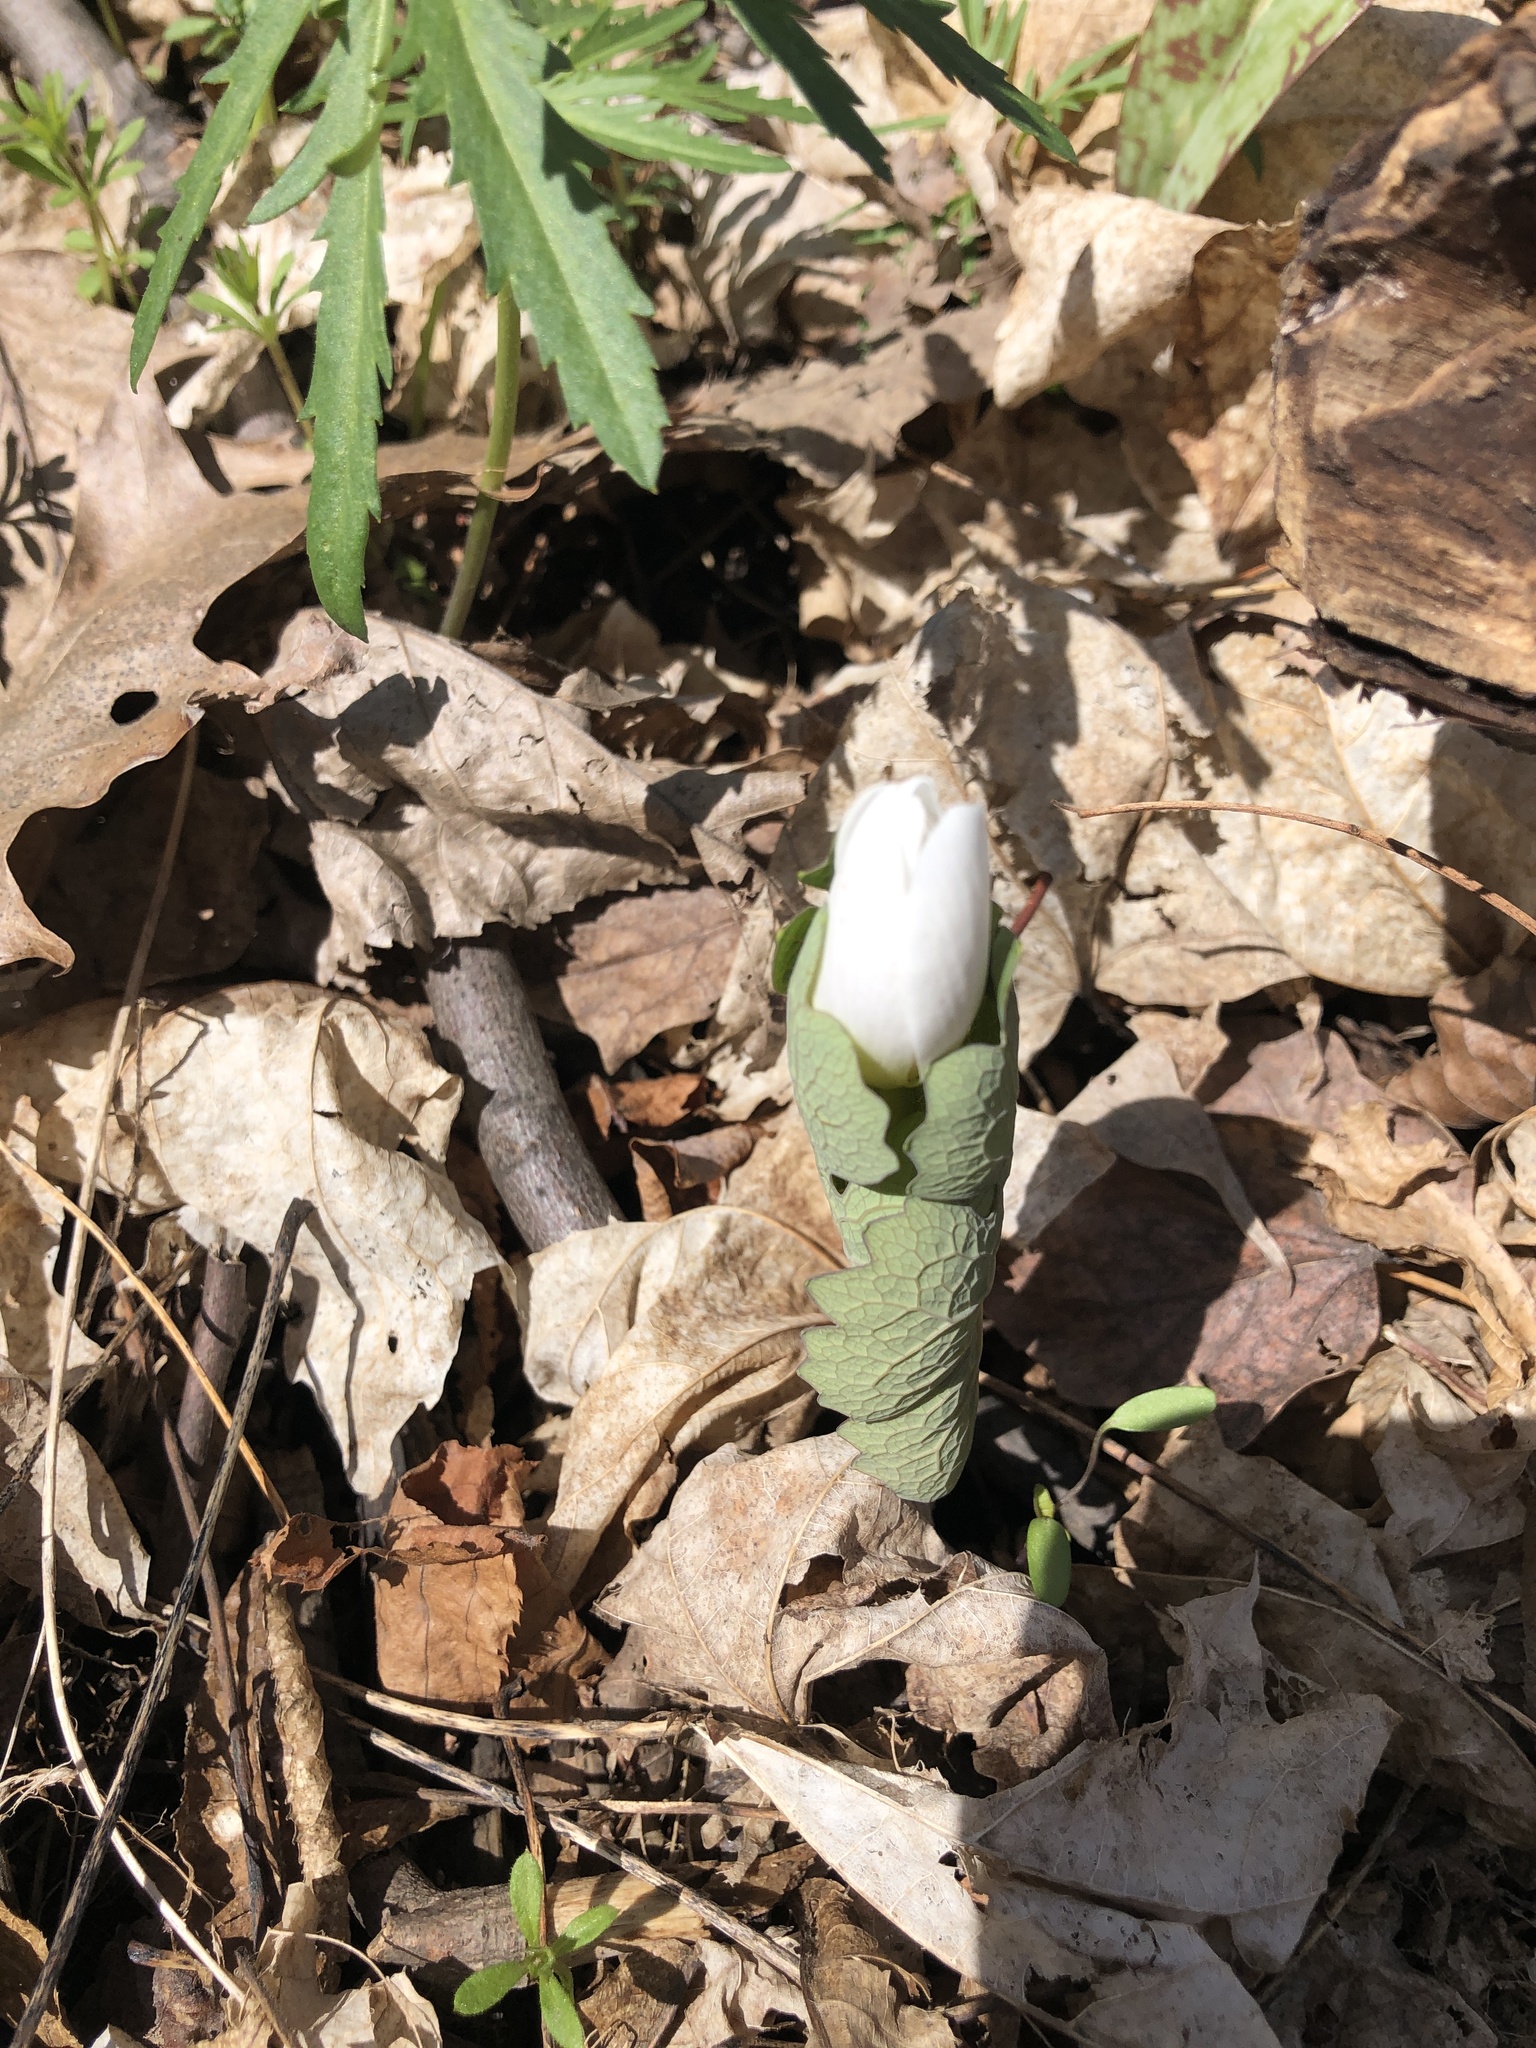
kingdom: Plantae
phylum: Tracheophyta
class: Magnoliopsida
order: Ranunculales
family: Papaveraceae
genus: Sanguinaria
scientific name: Sanguinaria canadensis
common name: Bloodroot
